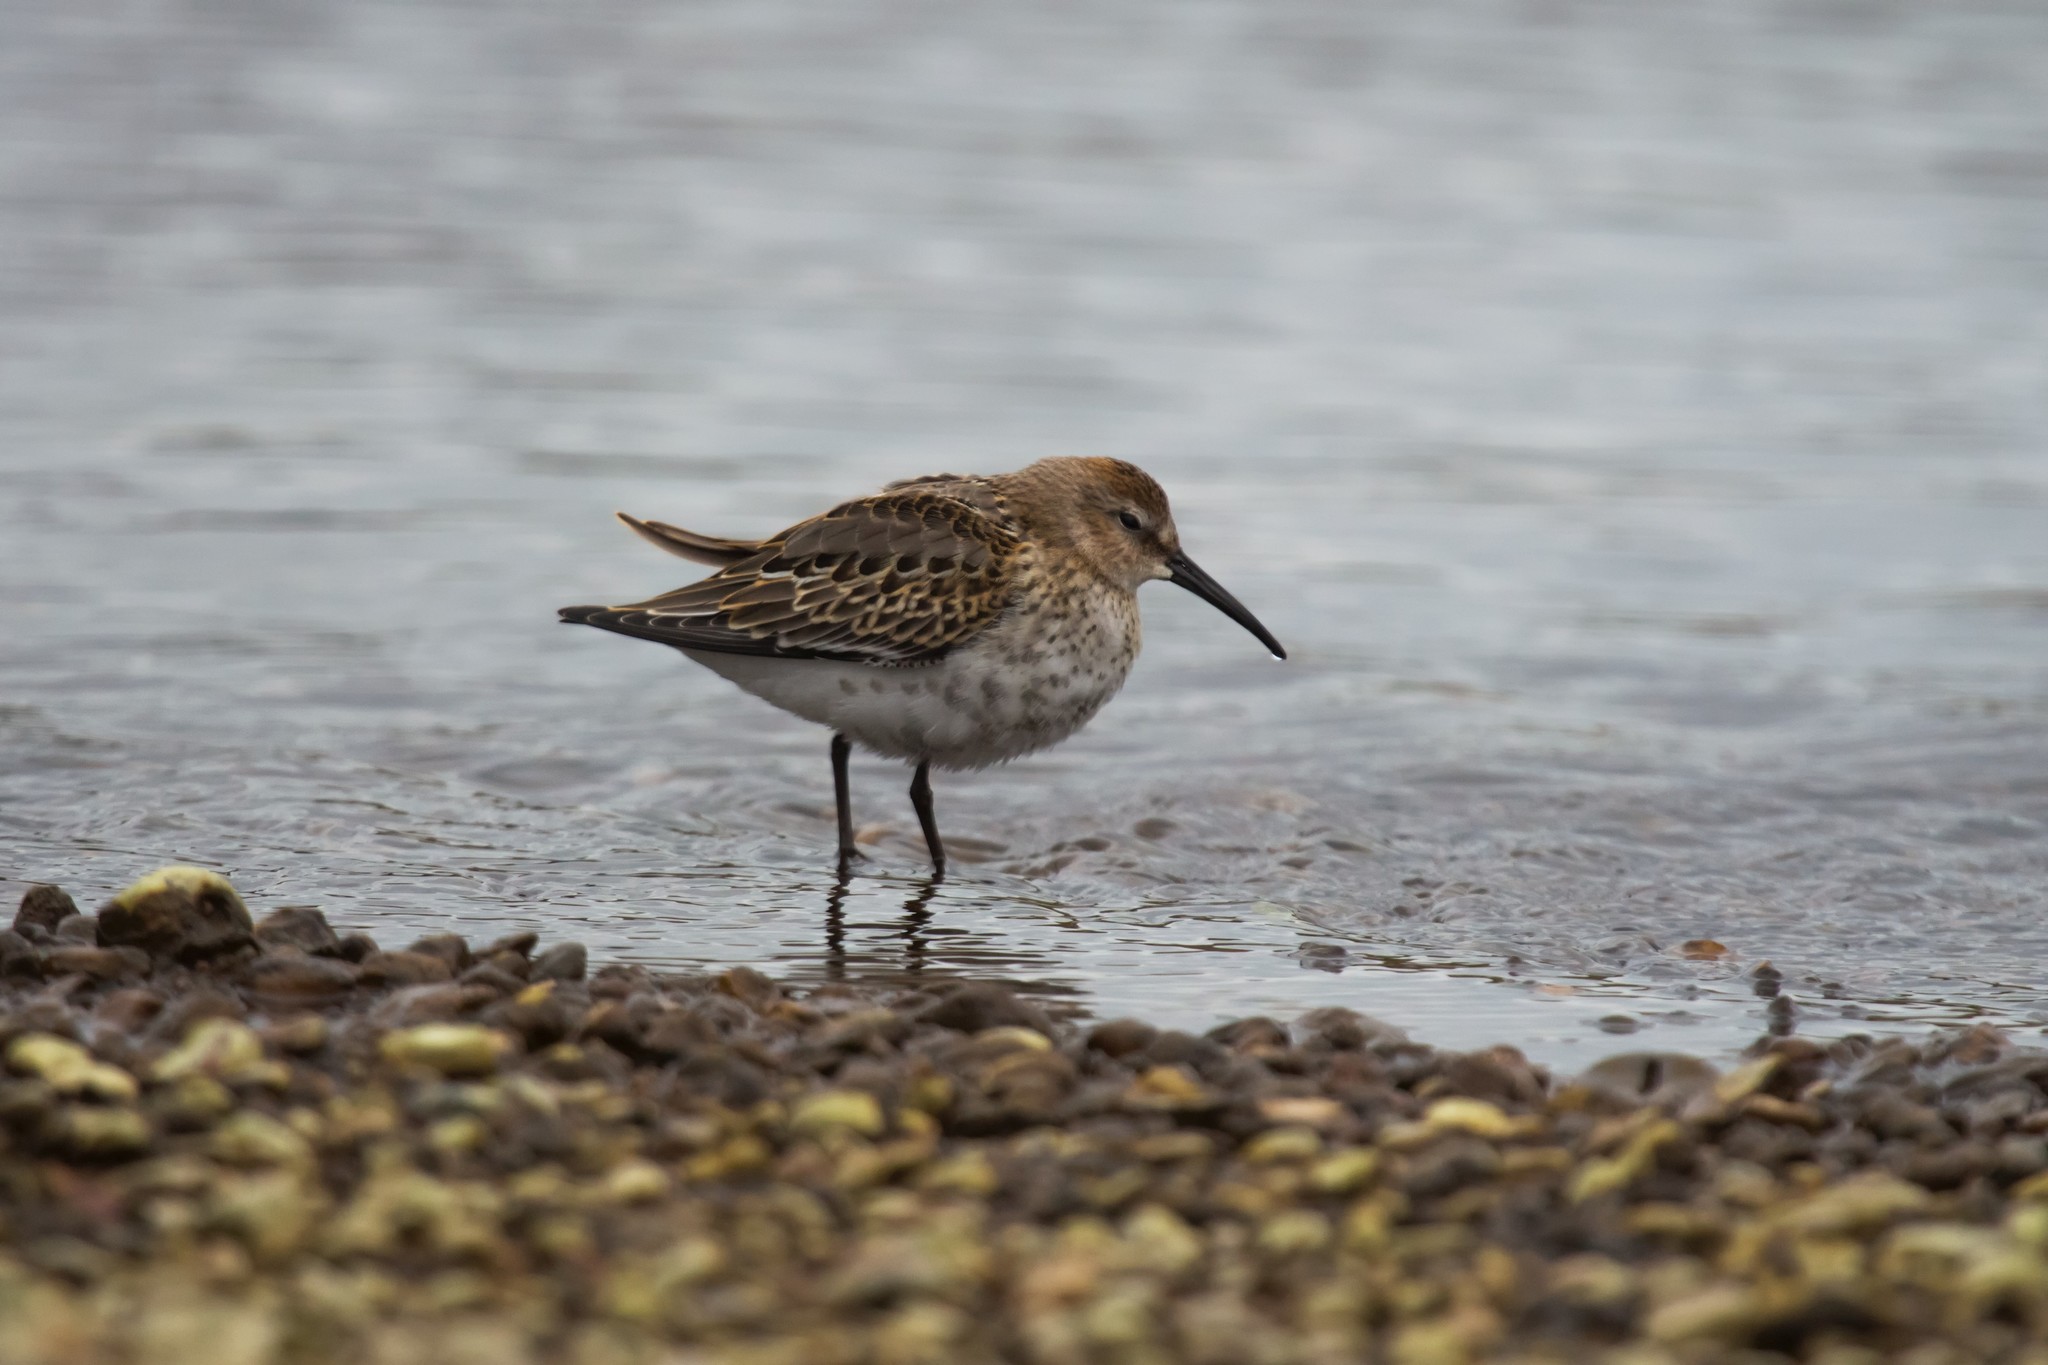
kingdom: Animalia
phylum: Chordata
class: Aves
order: Charadriiformes
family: Scolopacidae
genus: Calidris
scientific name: Calidris alpina
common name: Dunlin
